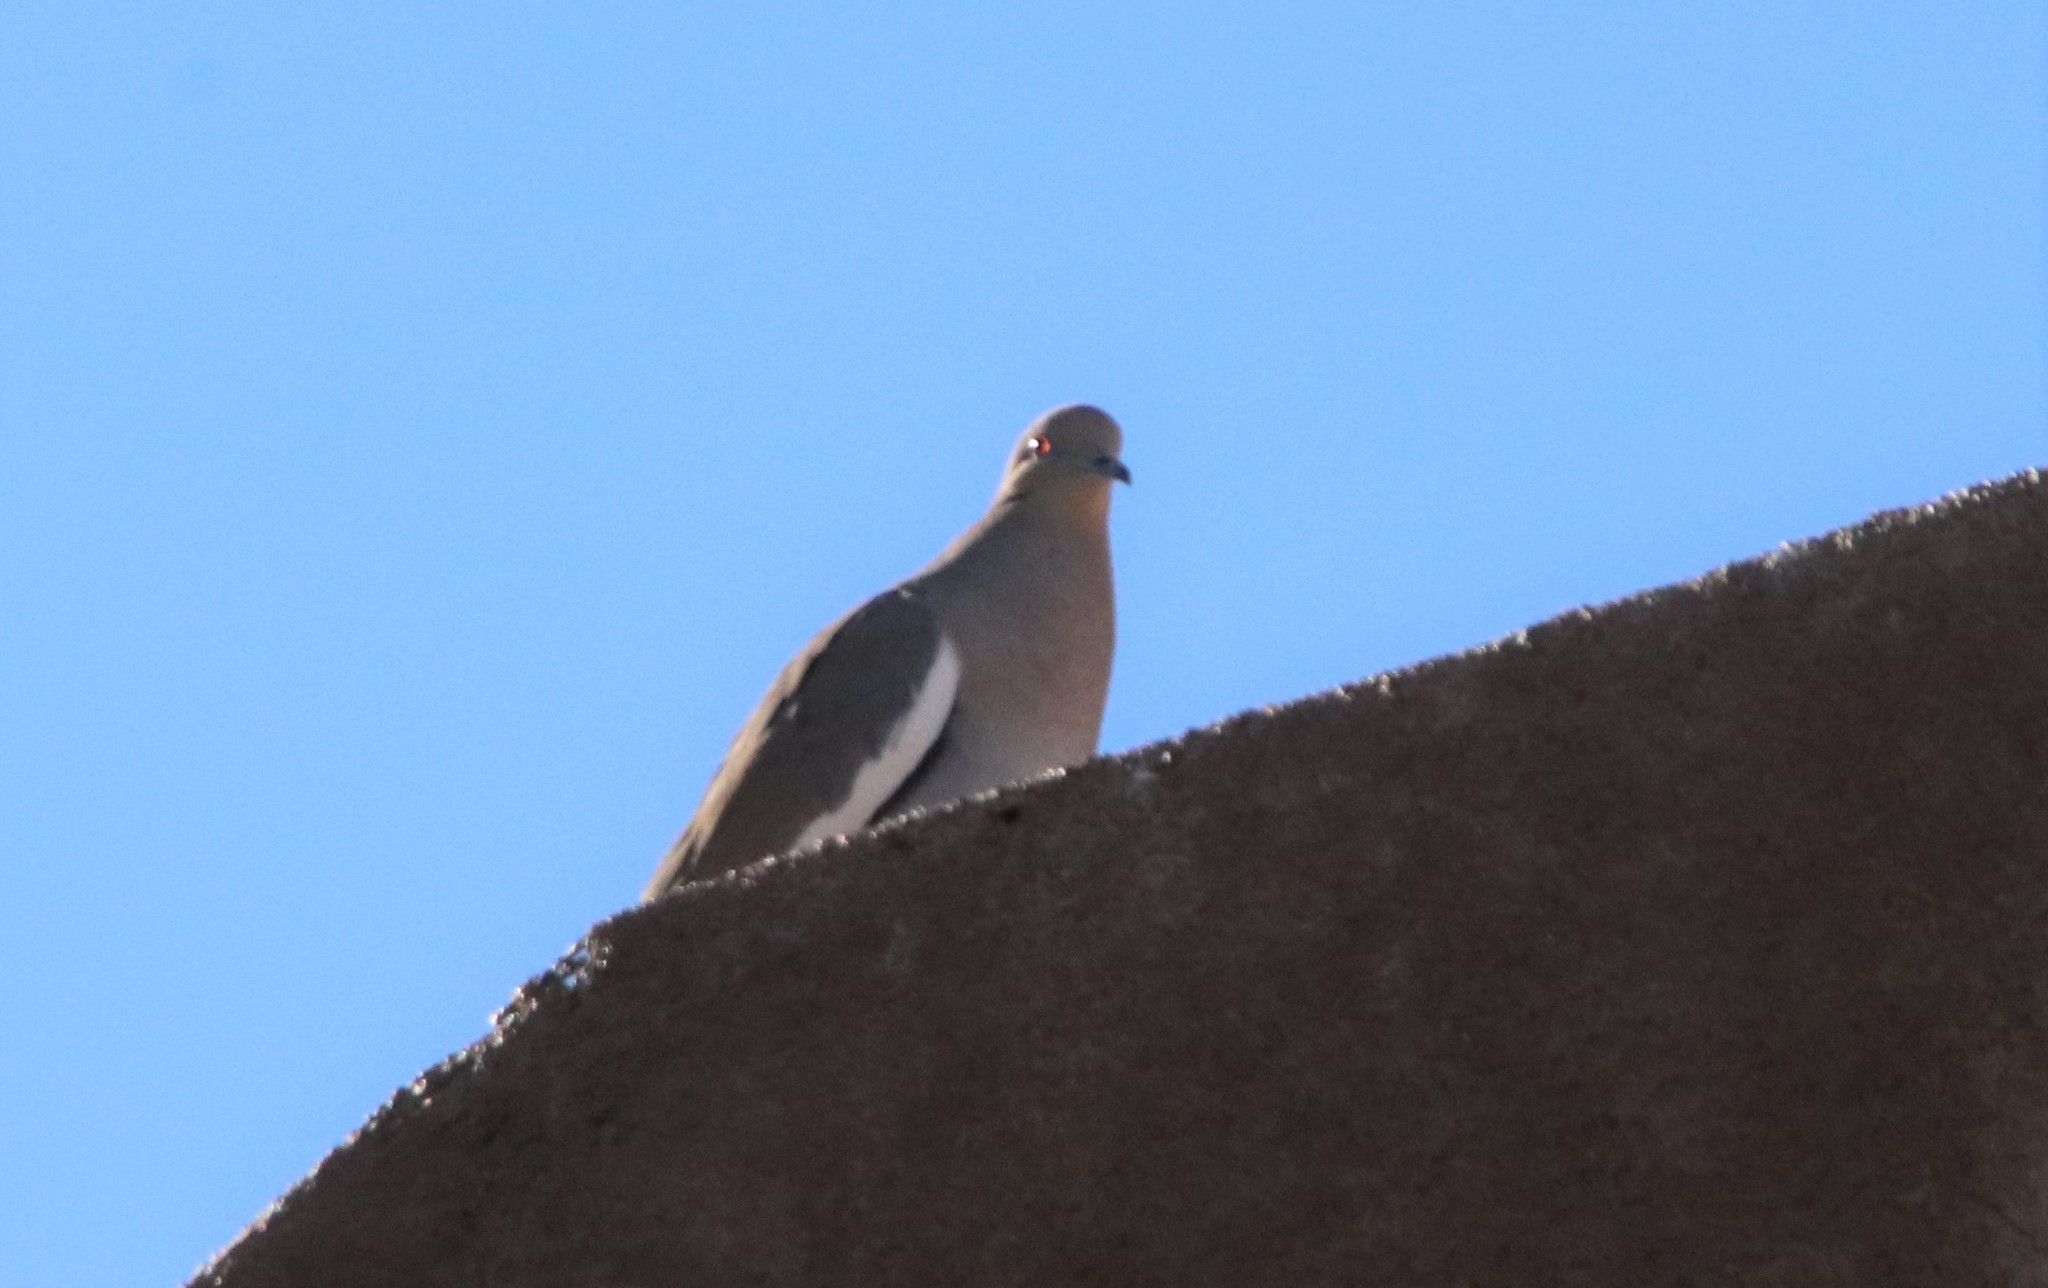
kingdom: Animalia
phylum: Chordata
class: Aves
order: Columbiformes
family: Columbidae
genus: Zenaida
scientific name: Zenaida asiatica
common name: White-winged dove
